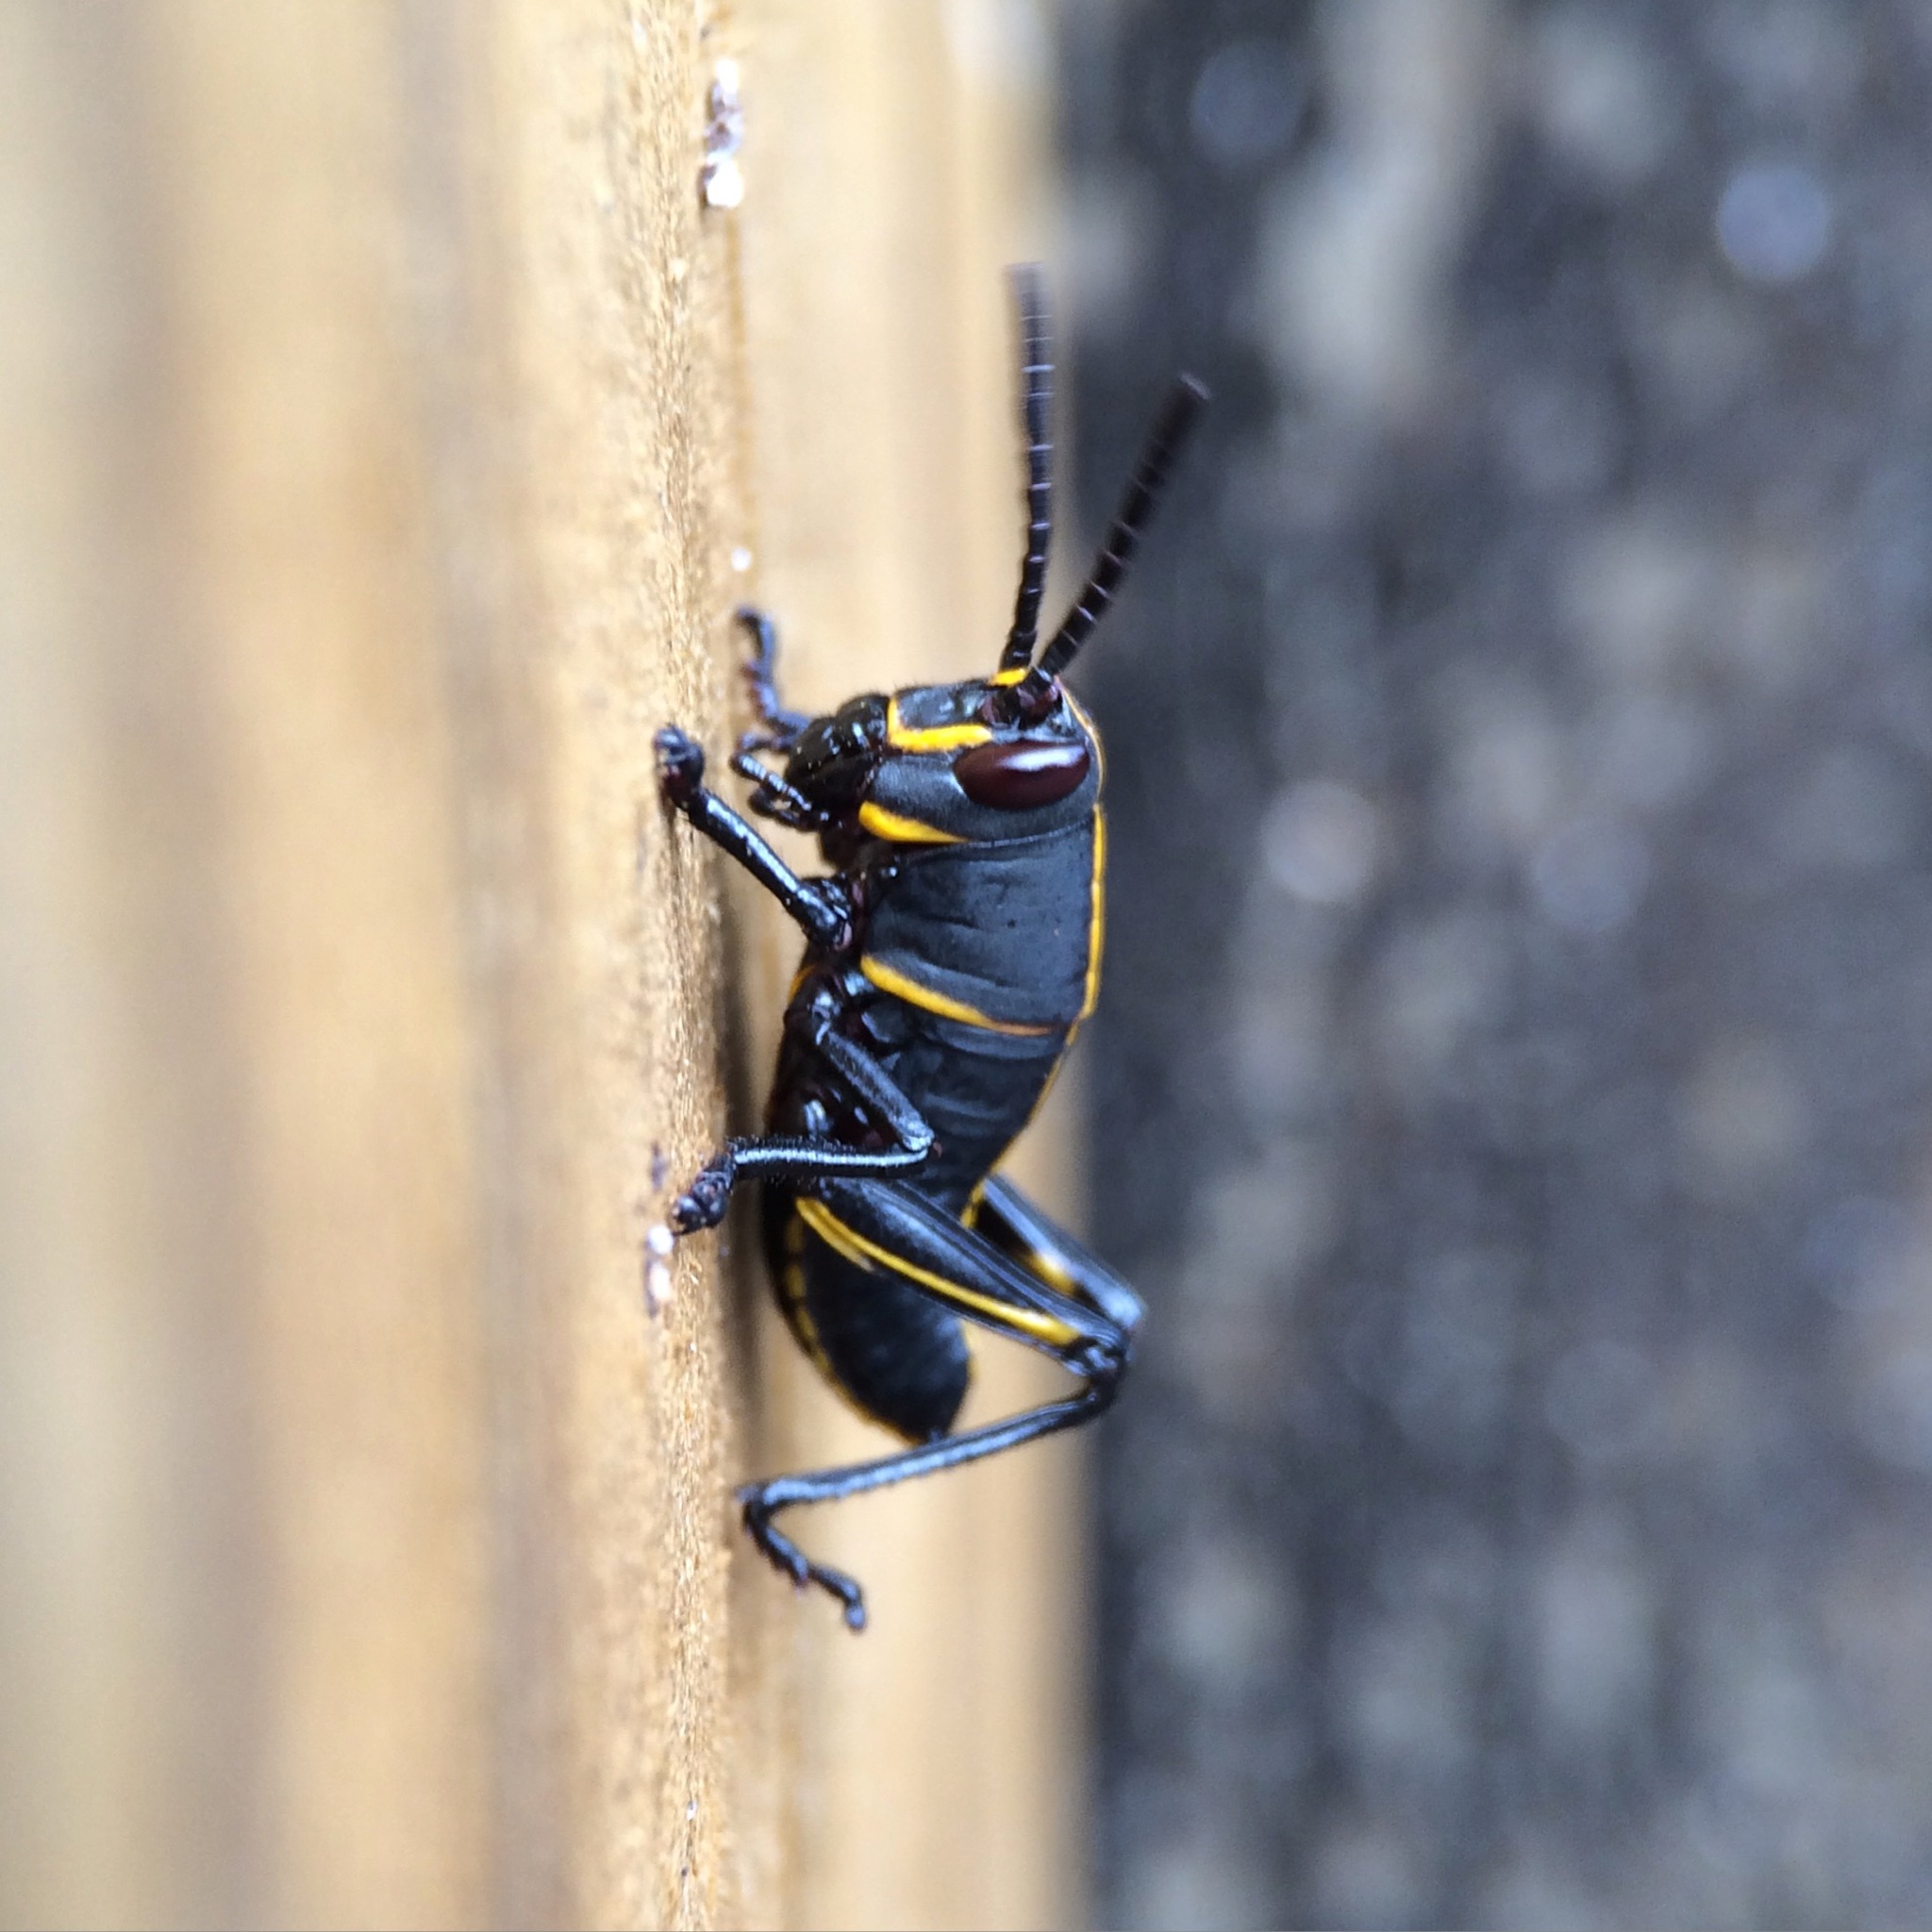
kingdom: Animalia
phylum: Arthropoda
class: Insecta
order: Orthoptera
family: Romaleidae
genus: Romalea
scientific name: Romalea microptera
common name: Eastern lubber grasshopper
